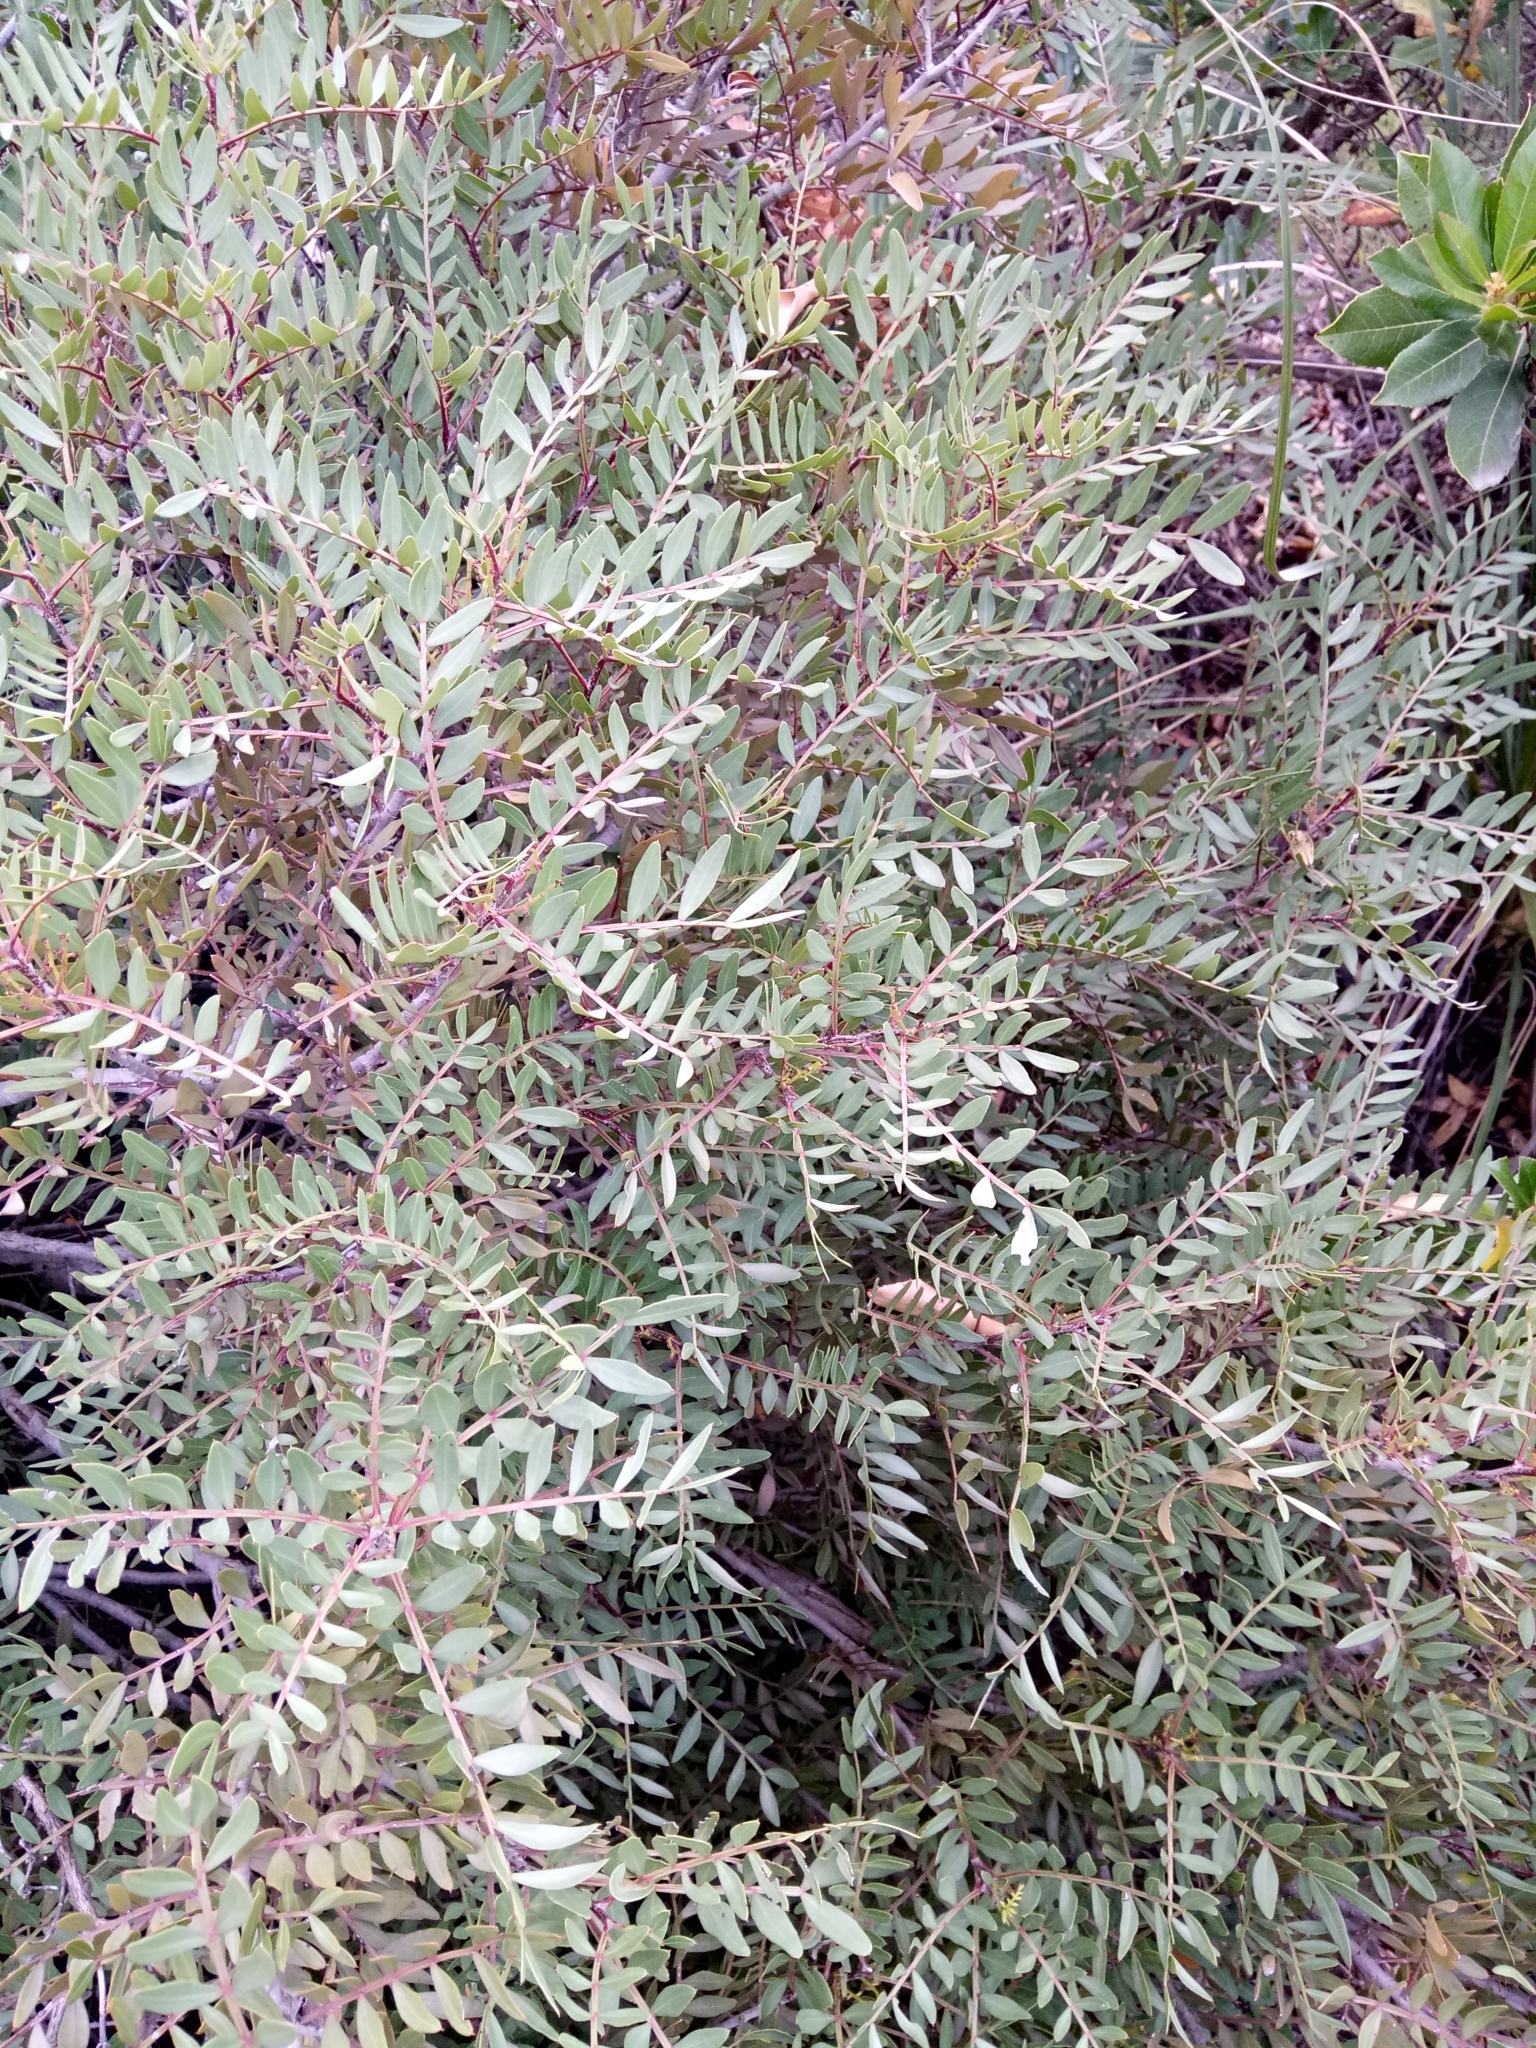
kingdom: Plantae
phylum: Tracheophyta
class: Magnoliopsida
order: Sapindales
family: Anacardiaceae
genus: Pistacia
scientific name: Pistacia lentiscus
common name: Lentisk
